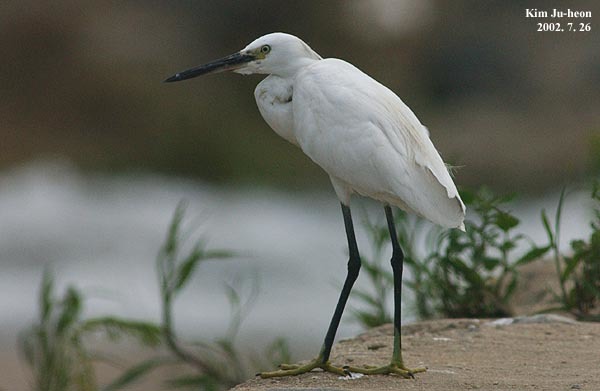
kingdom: Animalia
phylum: Chordata
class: Aves
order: Pelecaniformes
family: Ardeidae
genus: Egretta
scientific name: Egretta garzetta
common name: Little egret
